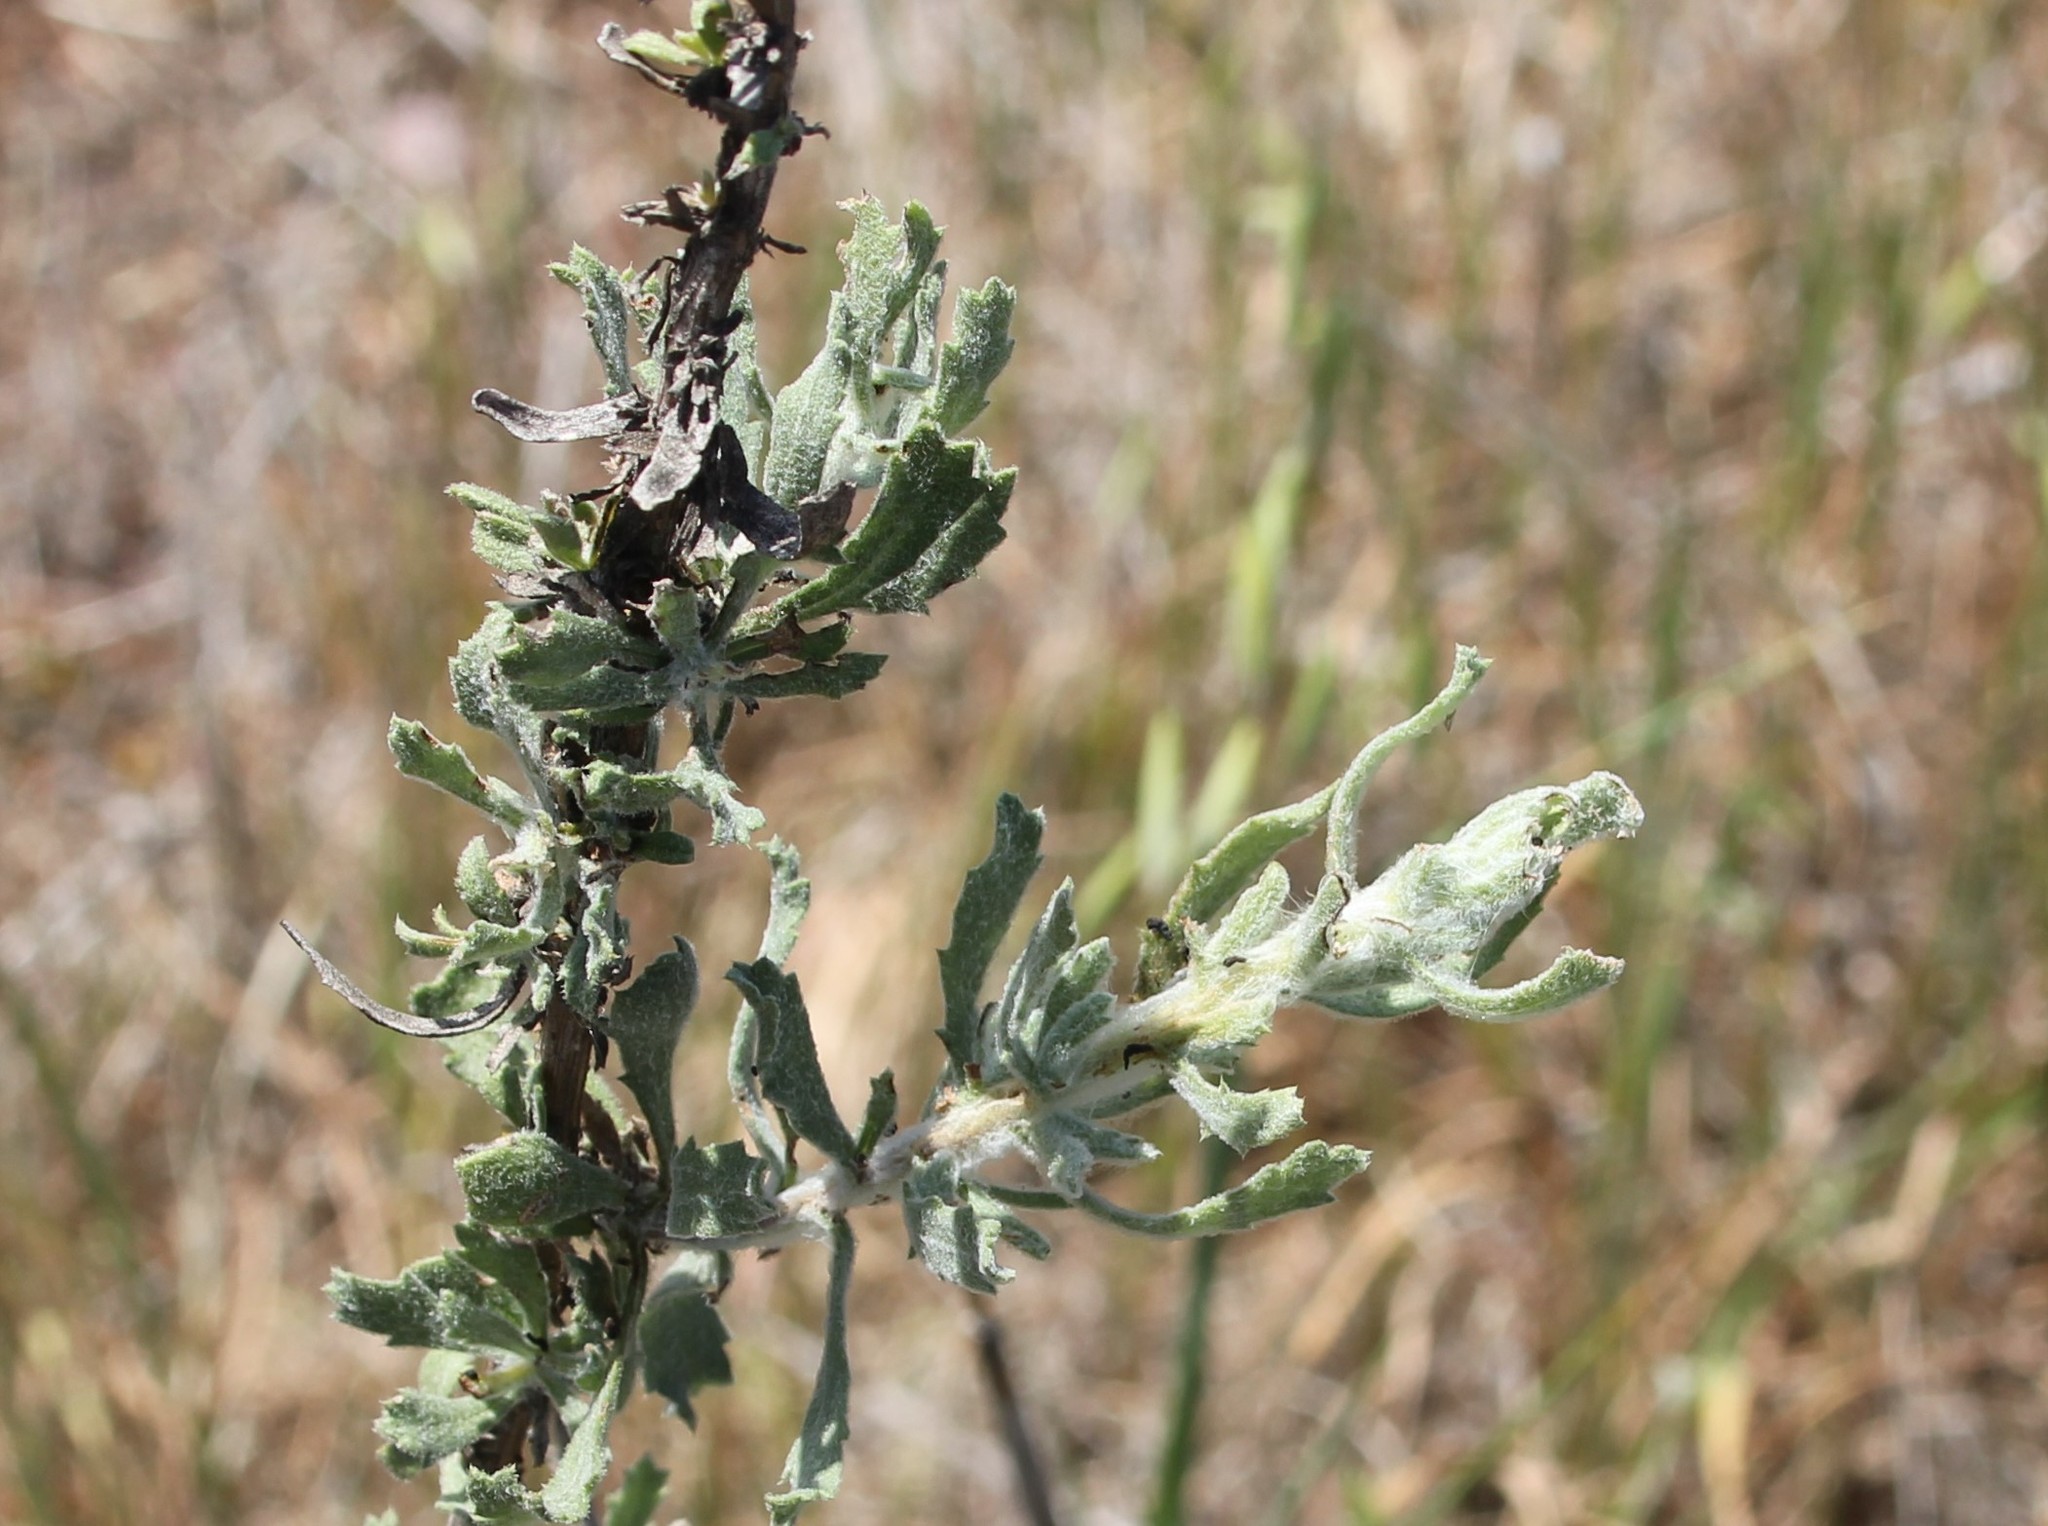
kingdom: Plantae
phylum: Tracheophyta
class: Magnoliopsida
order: Asterales
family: Asteraceae
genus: Isocoma
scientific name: Isocoma menziesii
